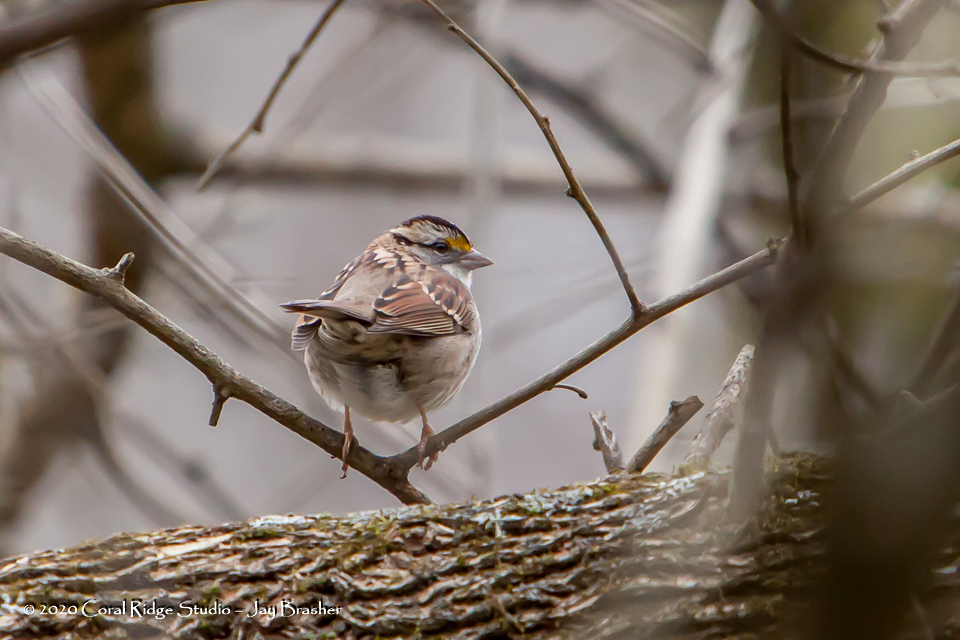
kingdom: Animalia
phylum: Chordata
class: Aves
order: Passeriformes
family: Passerellidae
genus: Zonotrichia
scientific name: Zonotrichia albicollis
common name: White-throated sparrow
